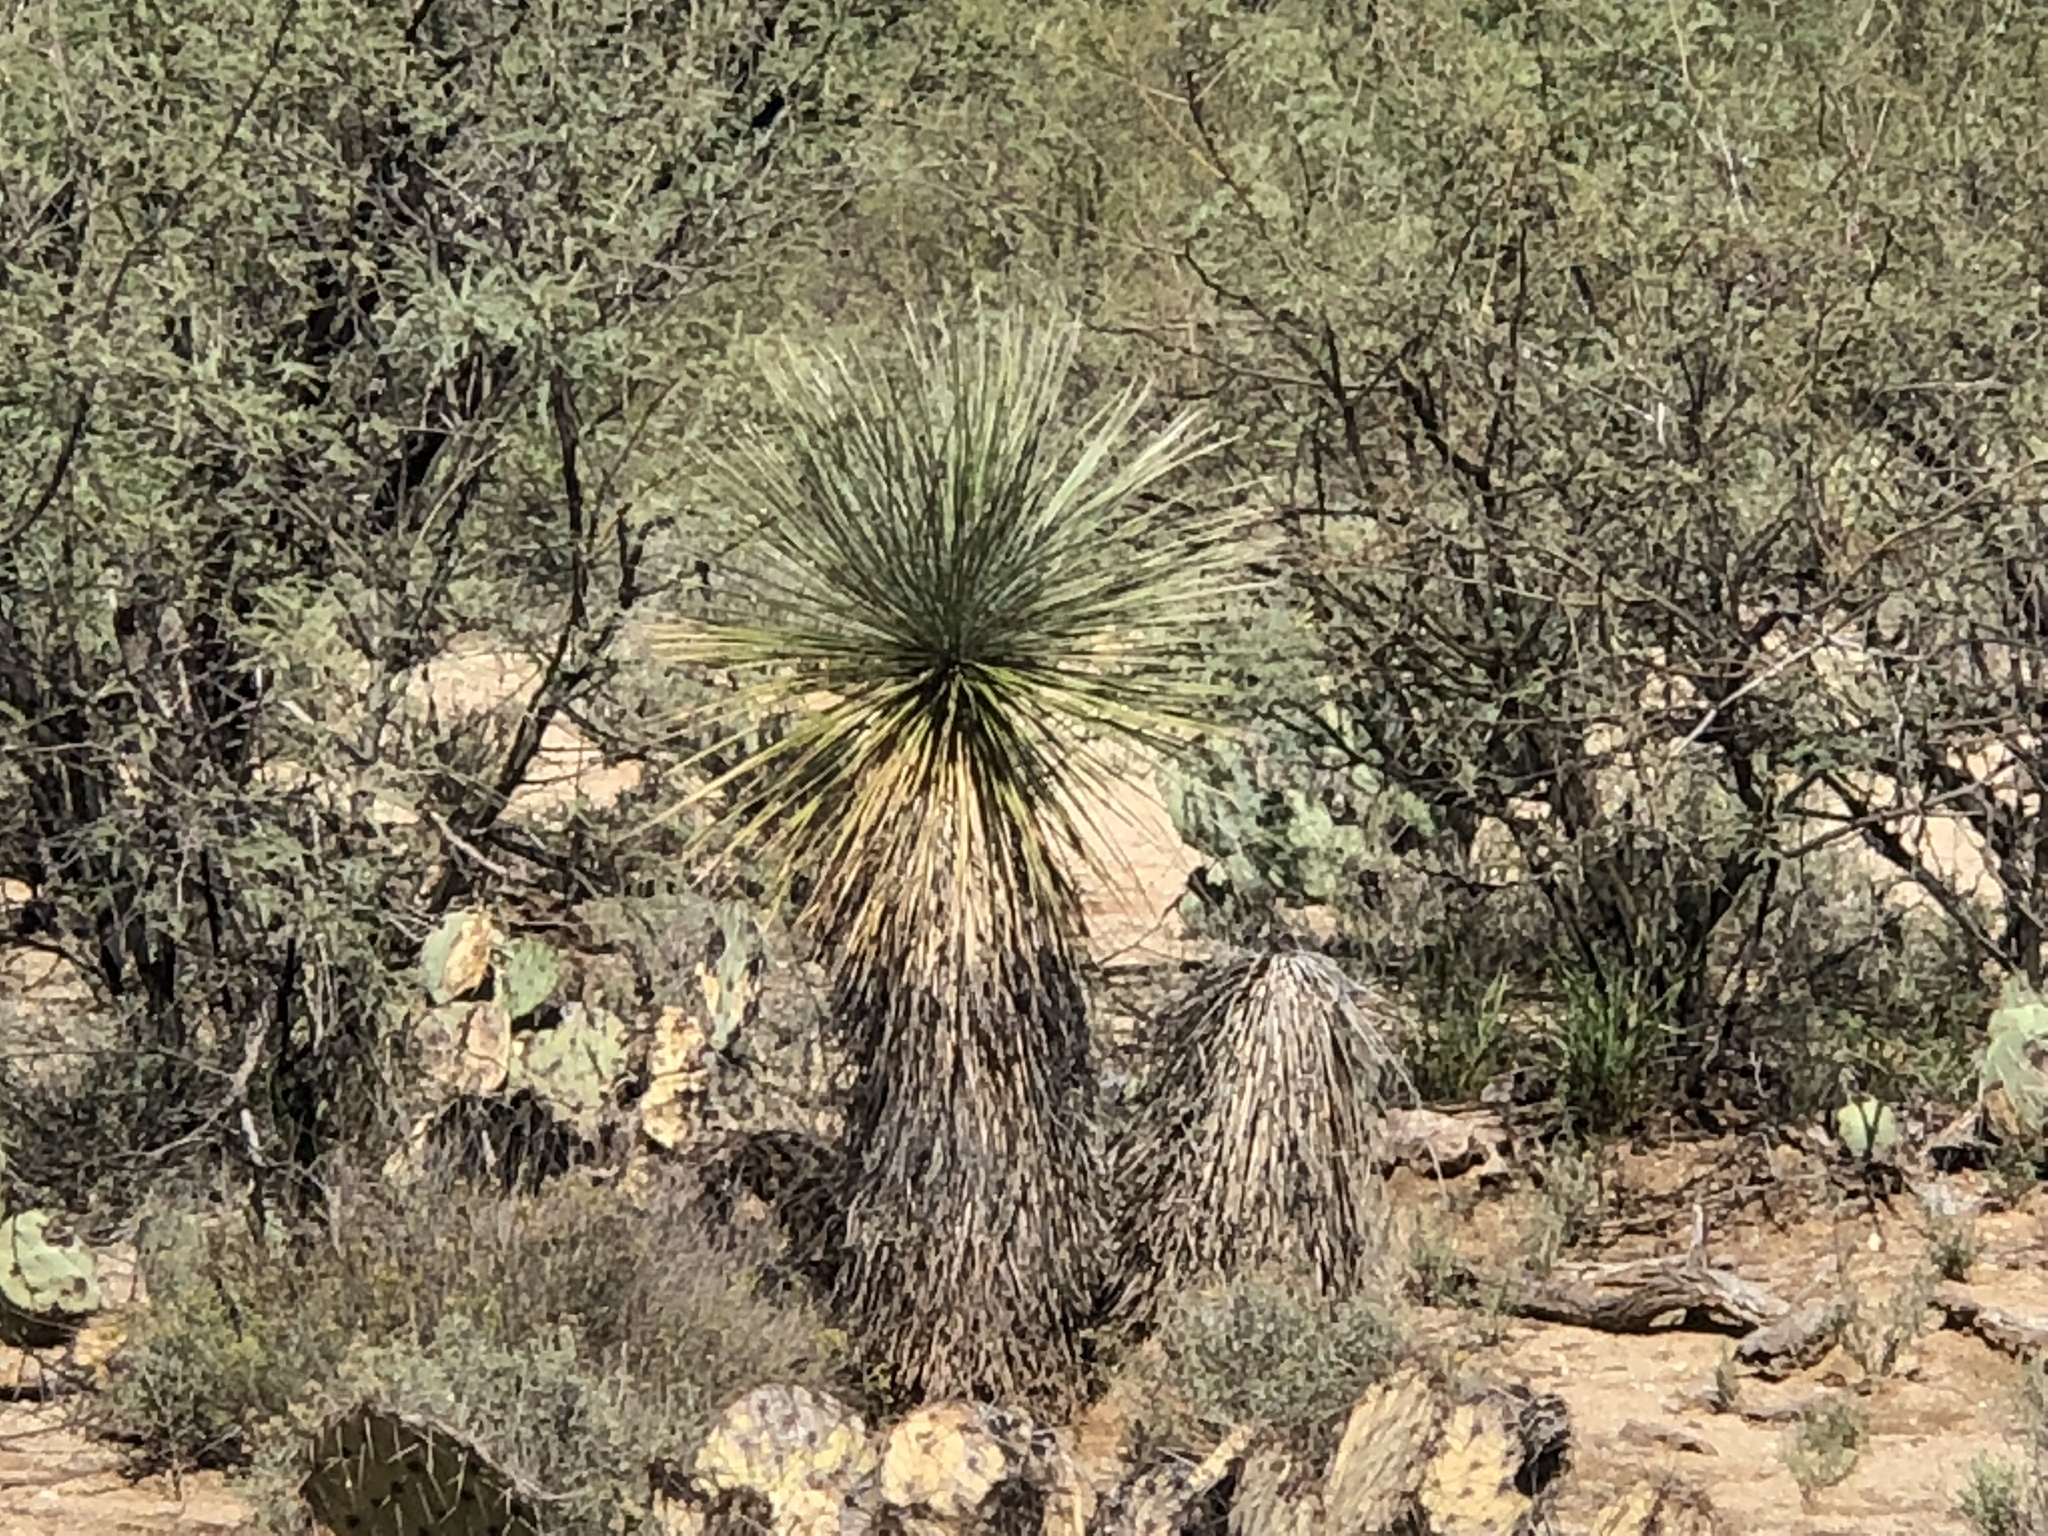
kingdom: Plantae
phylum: Tracheophyta
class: Liliopsida
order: Asparagales
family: Asparagaceae
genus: Yucca
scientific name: Yucca elata
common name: Palmella
